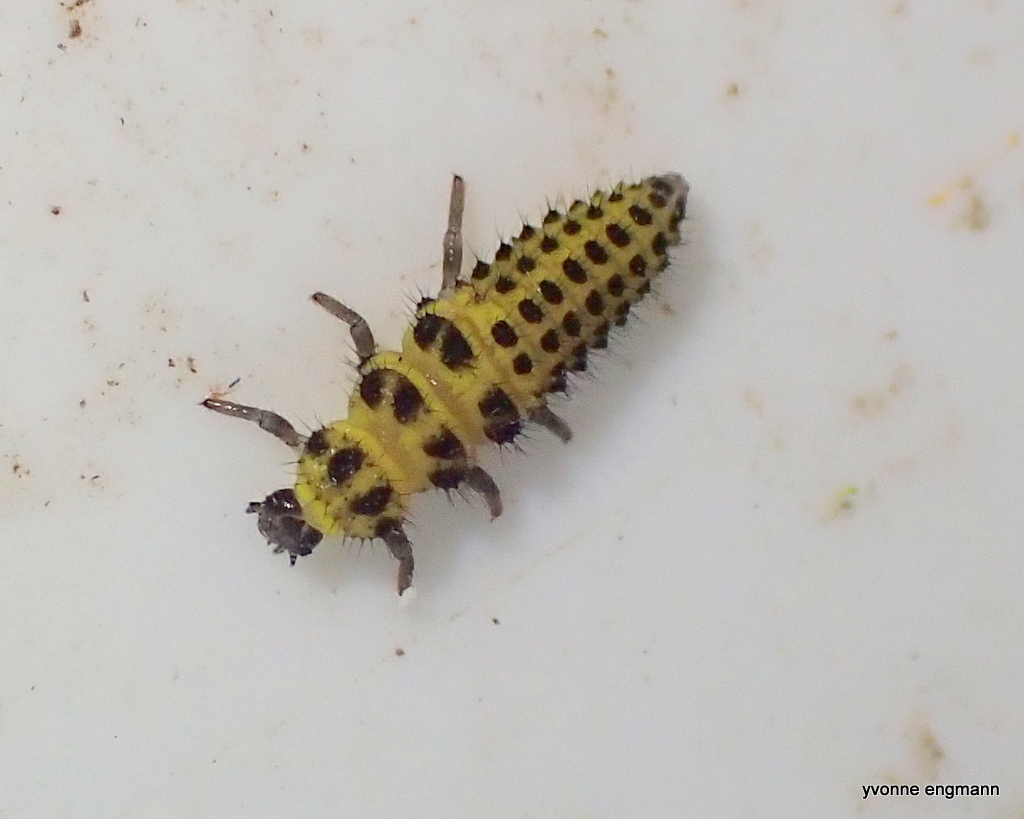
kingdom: Animalia
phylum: Arthropoda
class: Insecta
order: Coleoptera
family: Coccinellidae
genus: Psyllobora
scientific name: Psyllobora vigintiduopunctata
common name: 22-spot ladybird
